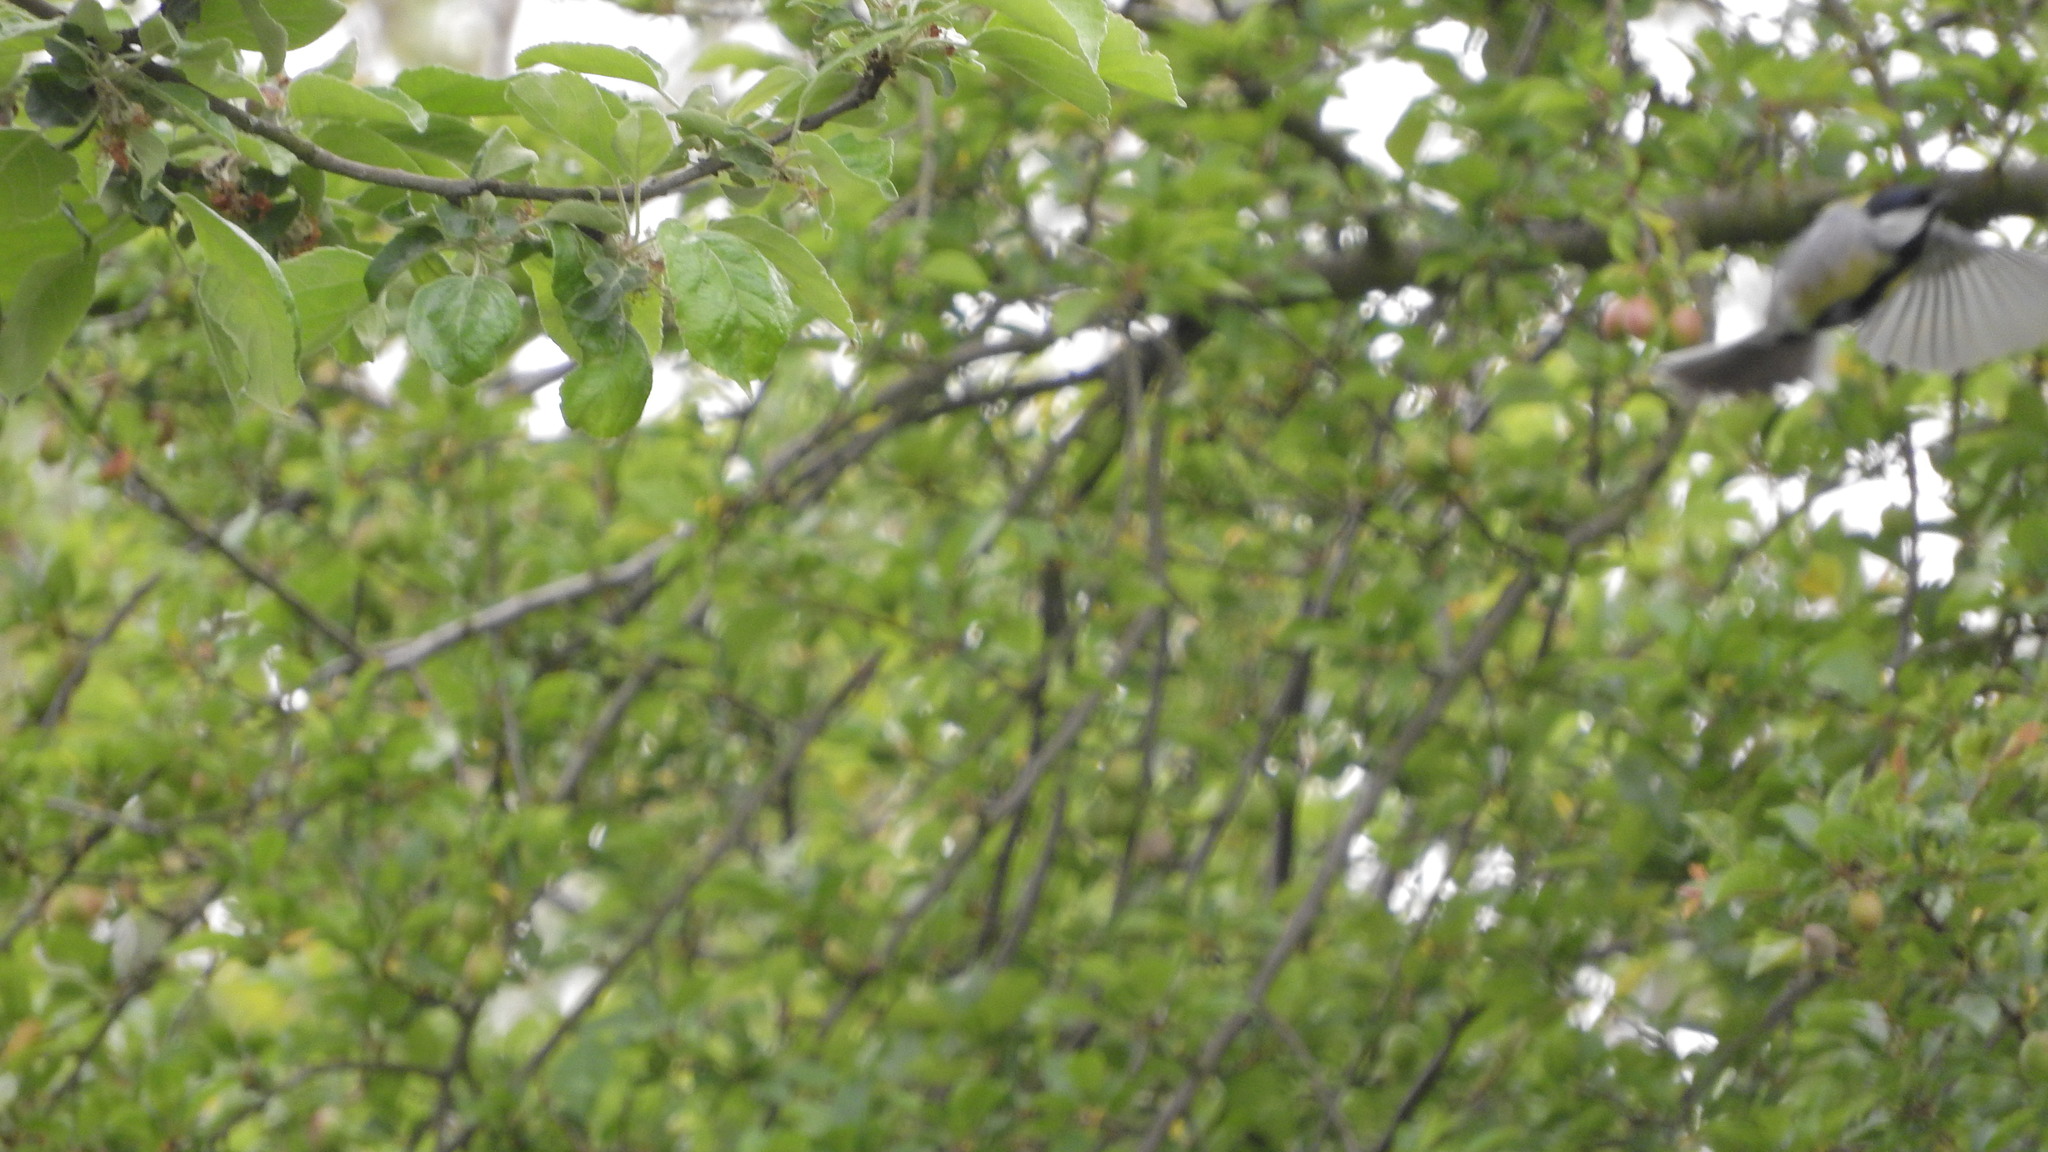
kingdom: Animalia
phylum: Chordata
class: Aves
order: Passeriformes
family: Paridae
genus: Parus
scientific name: Parus major
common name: Great tit
